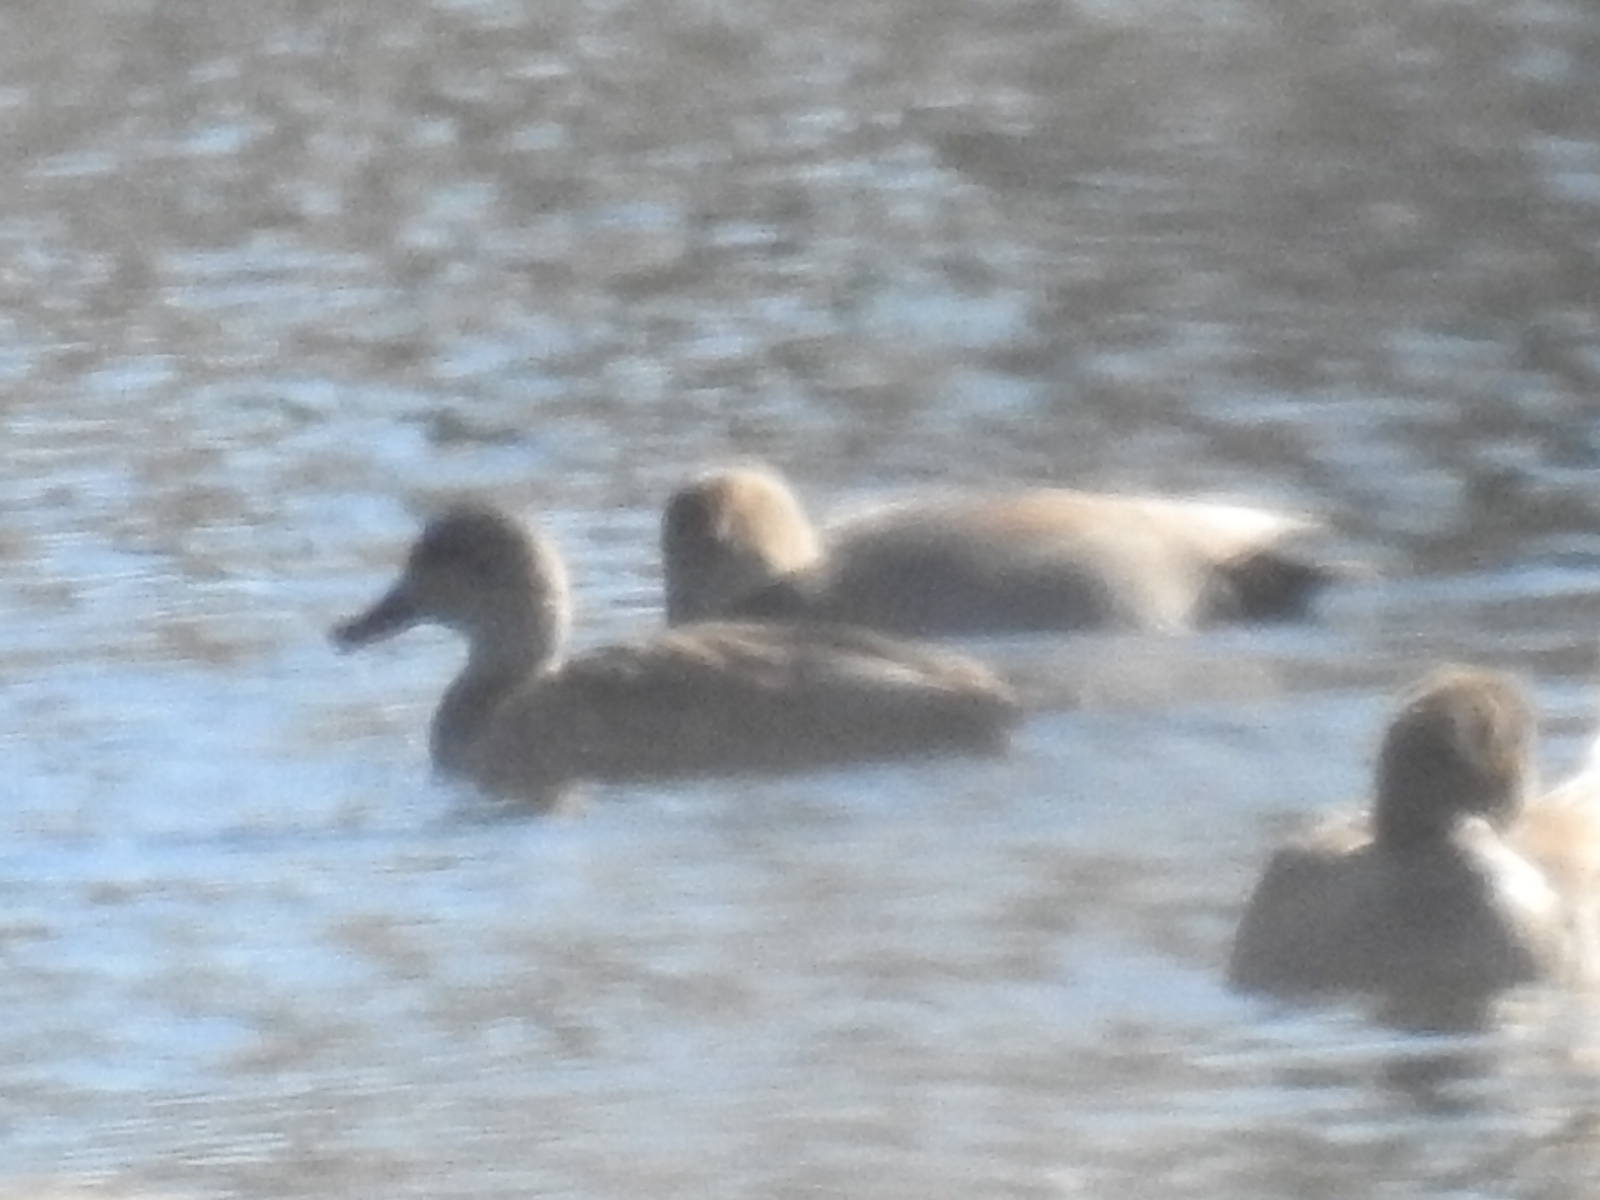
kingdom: Animalia
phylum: Chordata
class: Aves
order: Anseriformes
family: Anatidae
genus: Mareca
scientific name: Mareca strepera
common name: Gadwall
